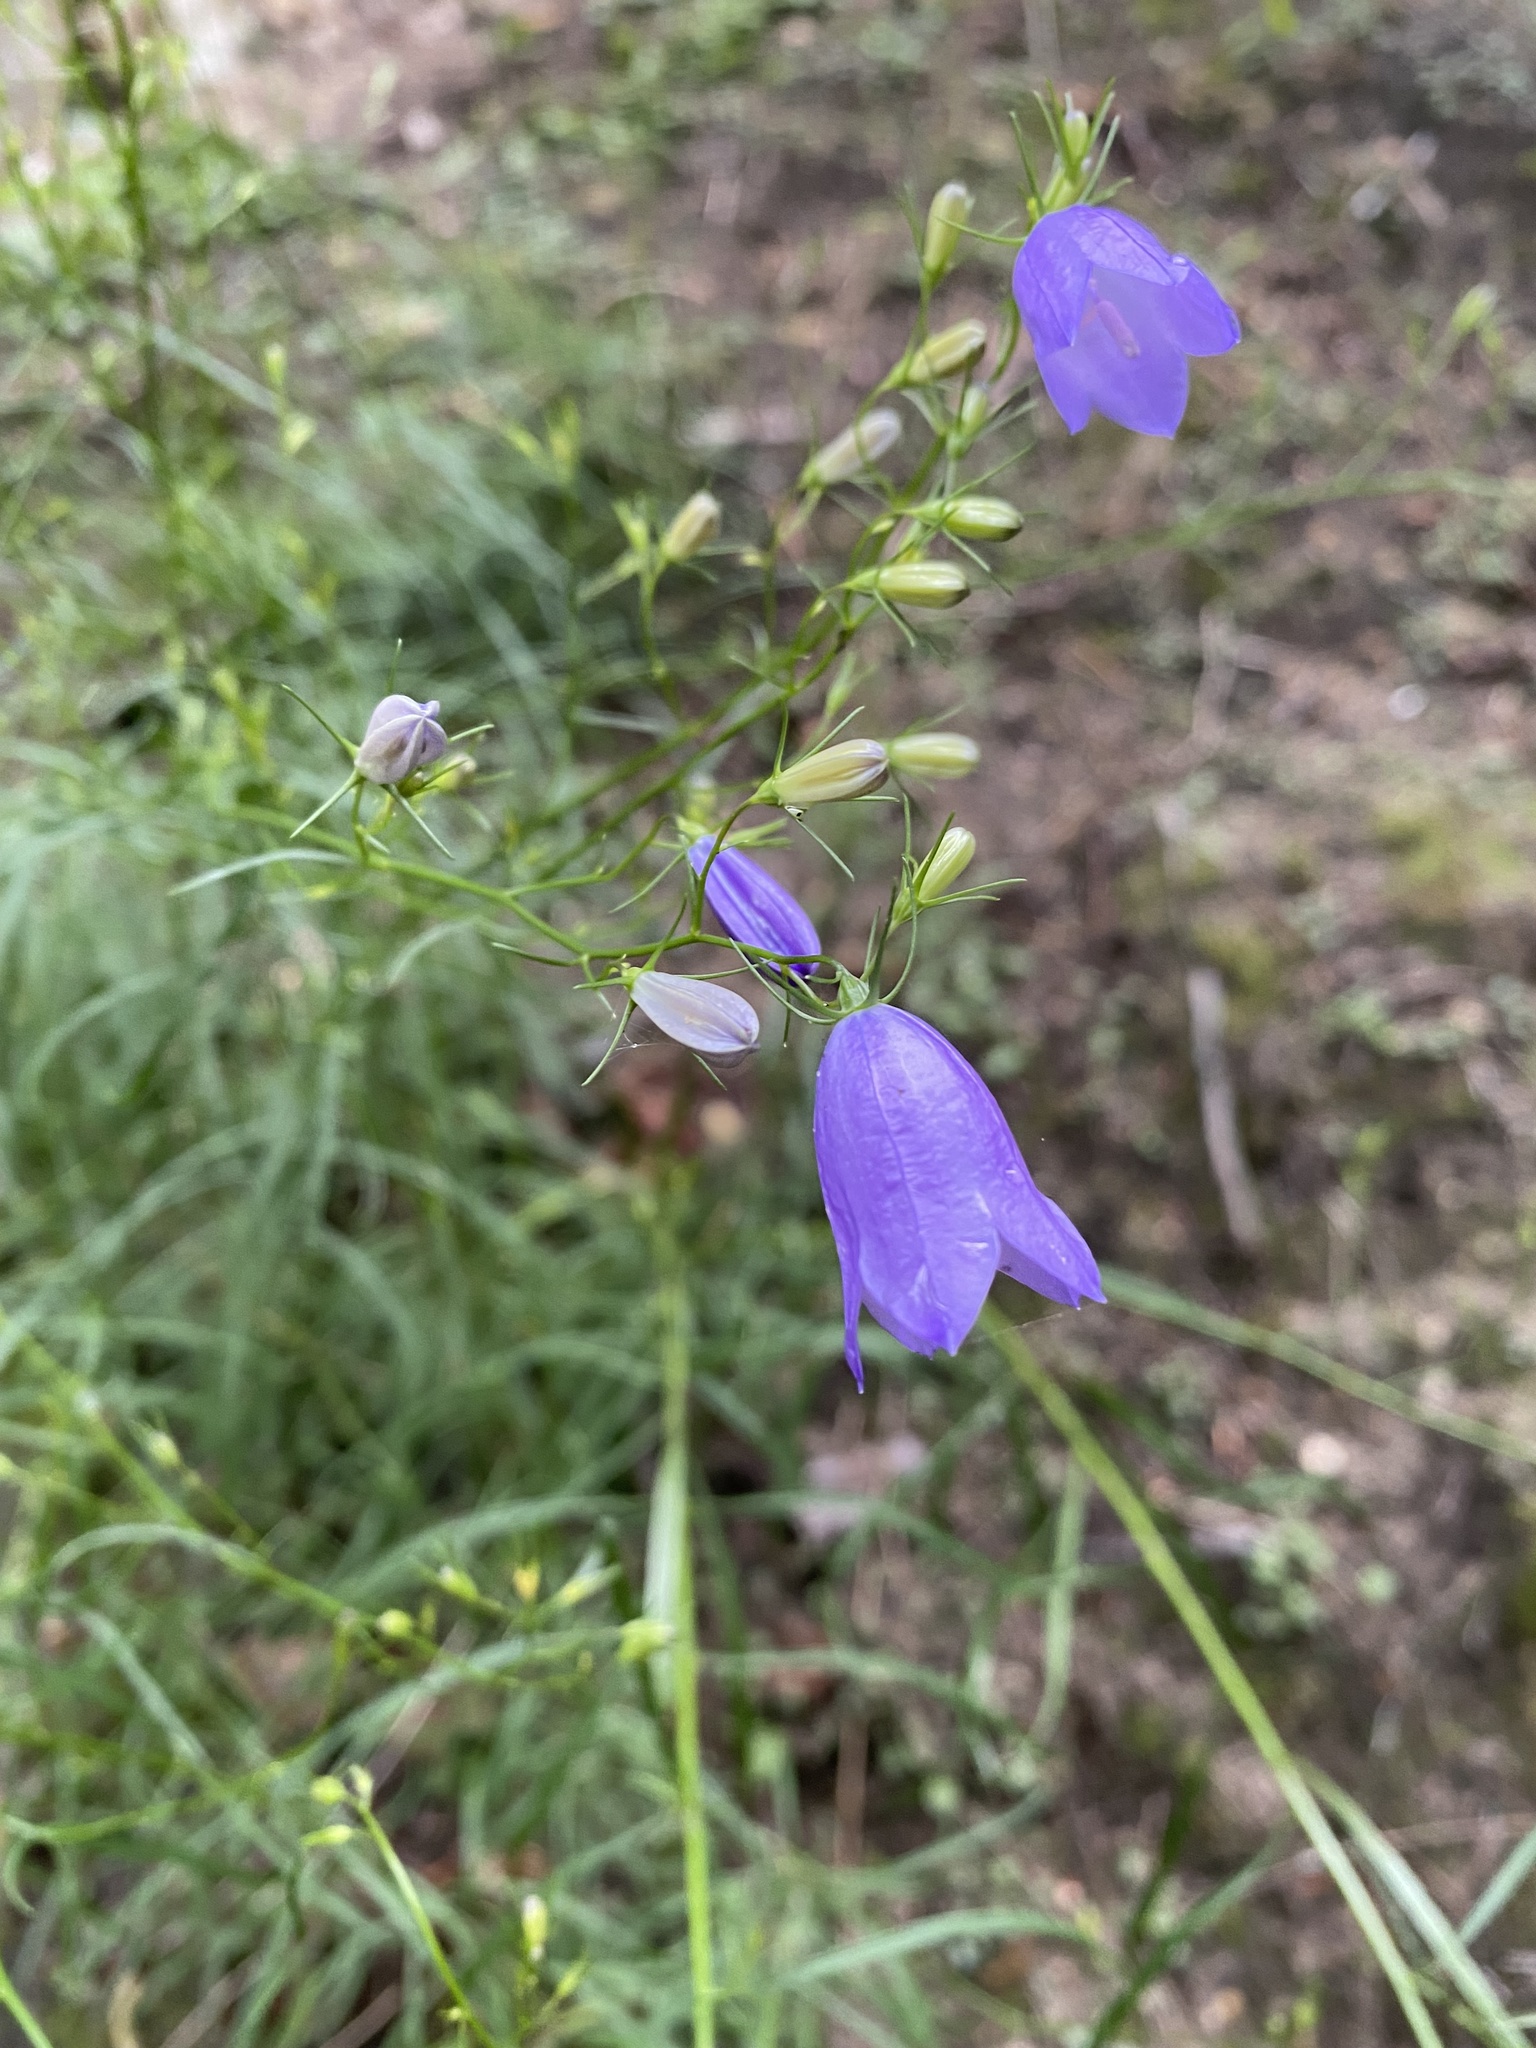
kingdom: Plantae
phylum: Tracheophyta
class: Magnoliopsida
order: Asterales
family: Campanulaceae
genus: Campanula
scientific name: Campanula rotundifolia
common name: Harebell
